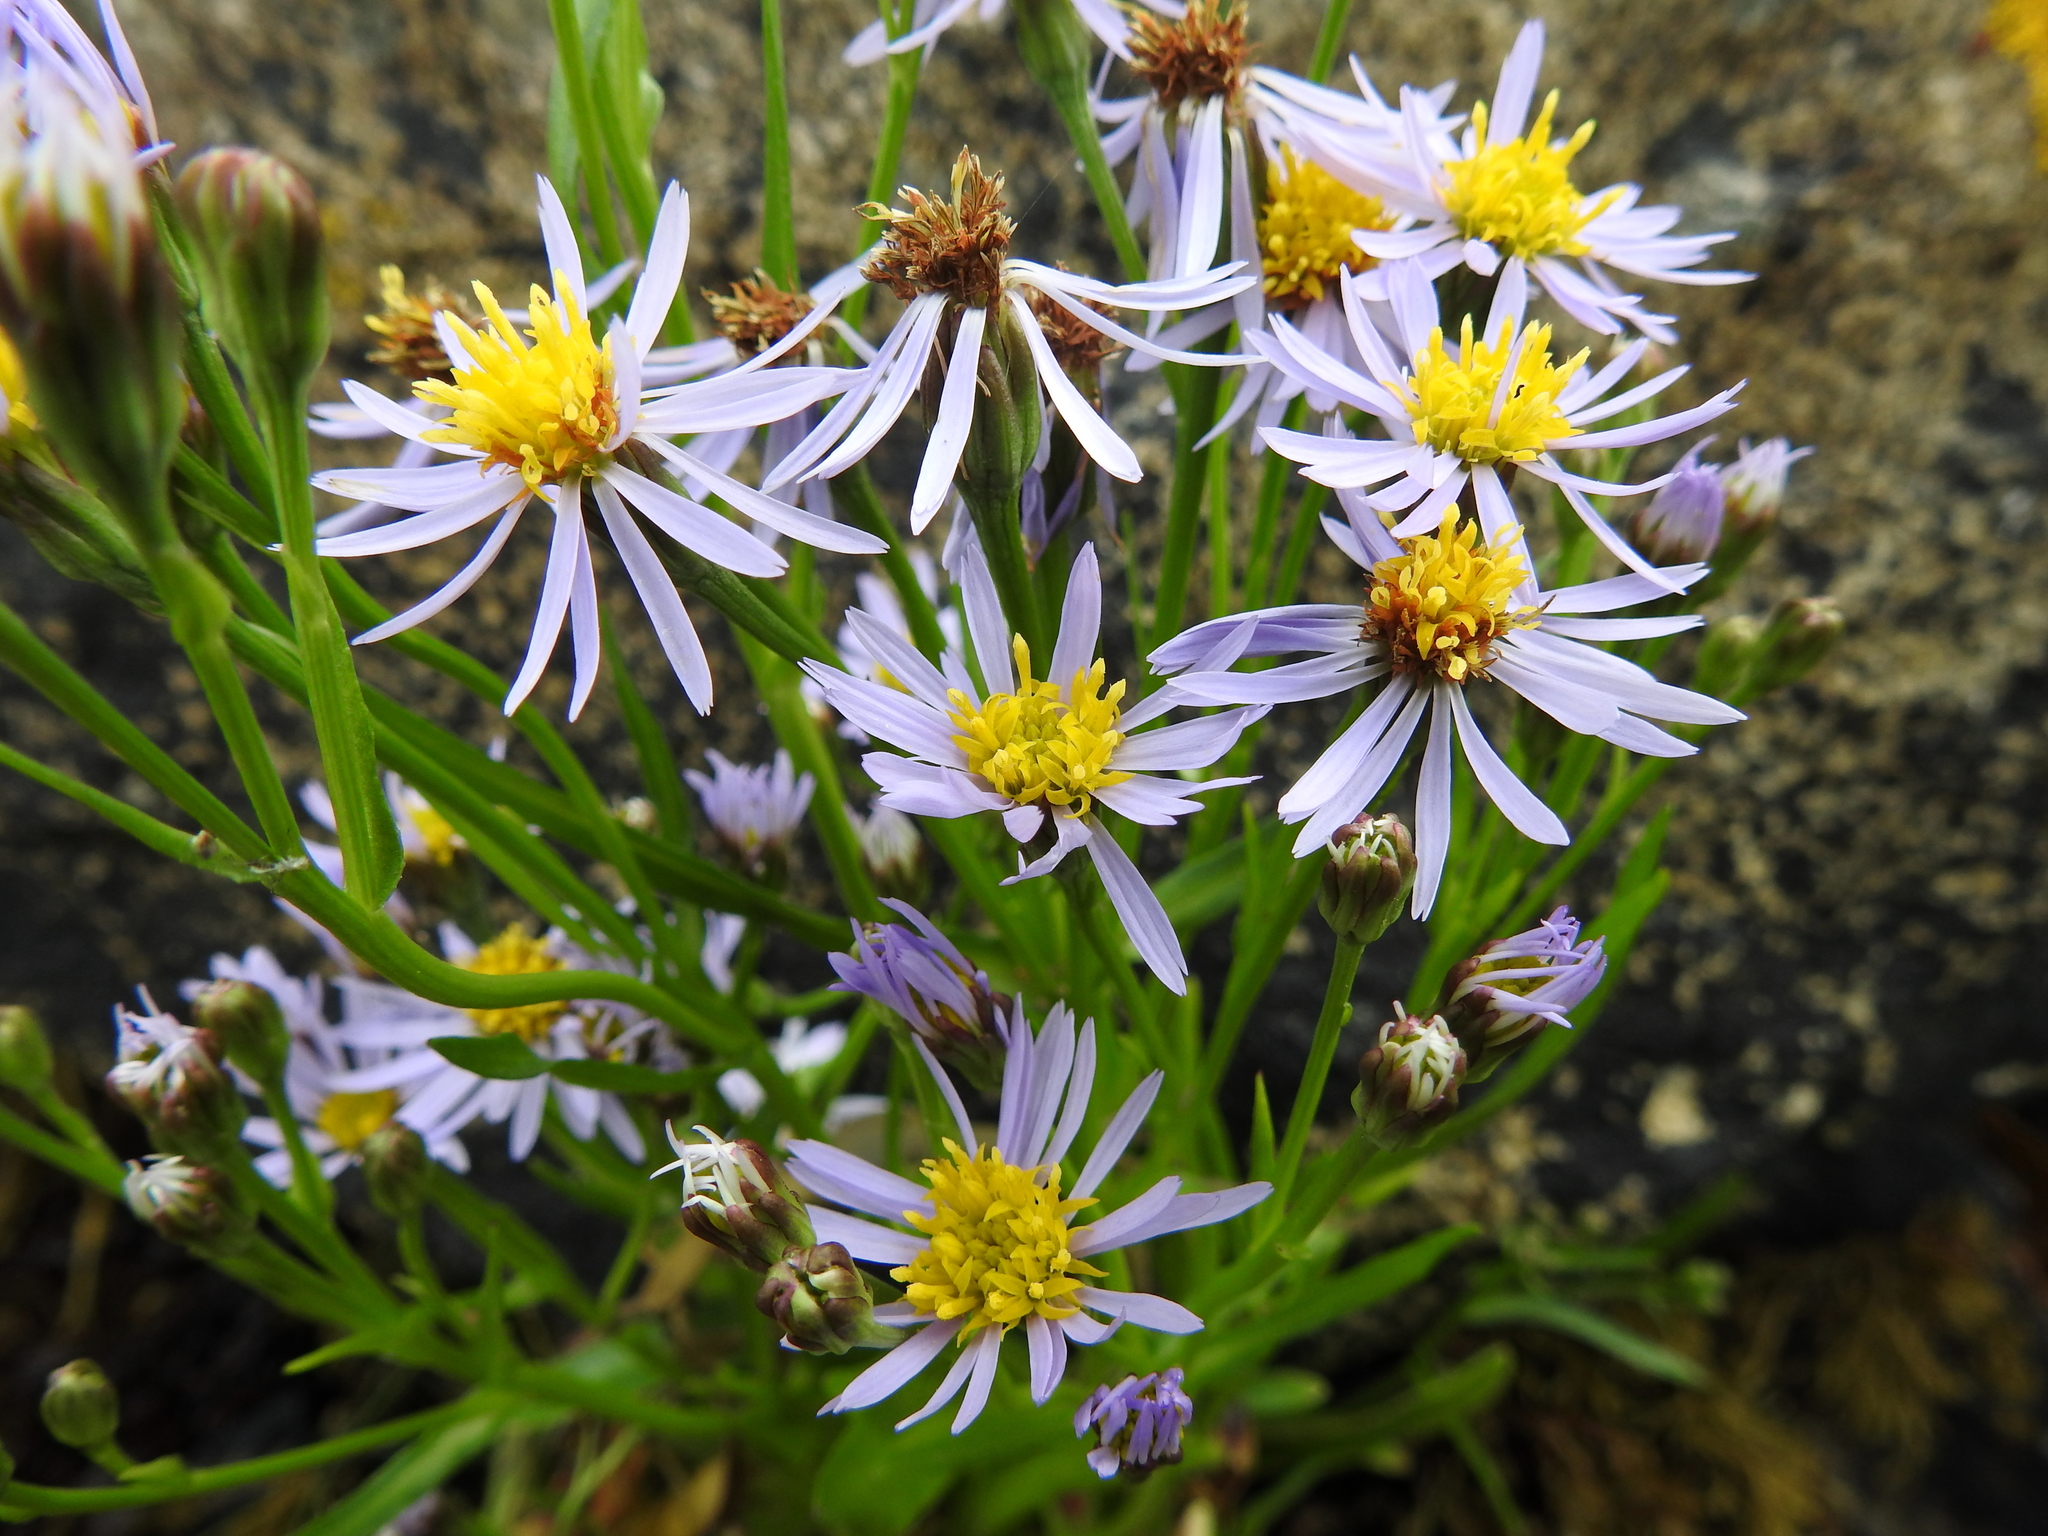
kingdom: Plantae
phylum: Tracheophyta
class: Magnoliopsida
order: Asterales
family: Asteraceae
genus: Tripolium
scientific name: Tripolium pannonicum
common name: Sea aster
